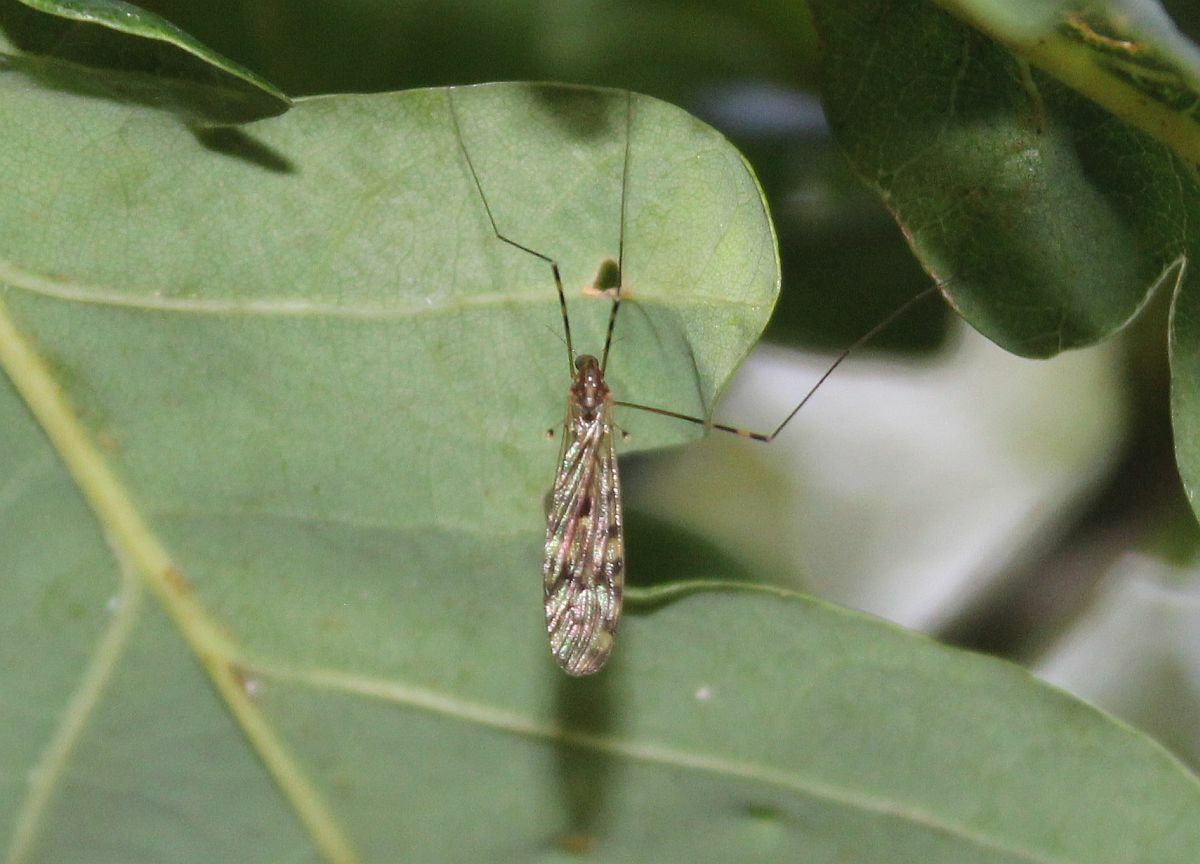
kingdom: Animalia
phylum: Arthropoda
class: Insecta
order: Diptera
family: Limoniidae
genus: Limonia
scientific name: Limonia nubeculosa
